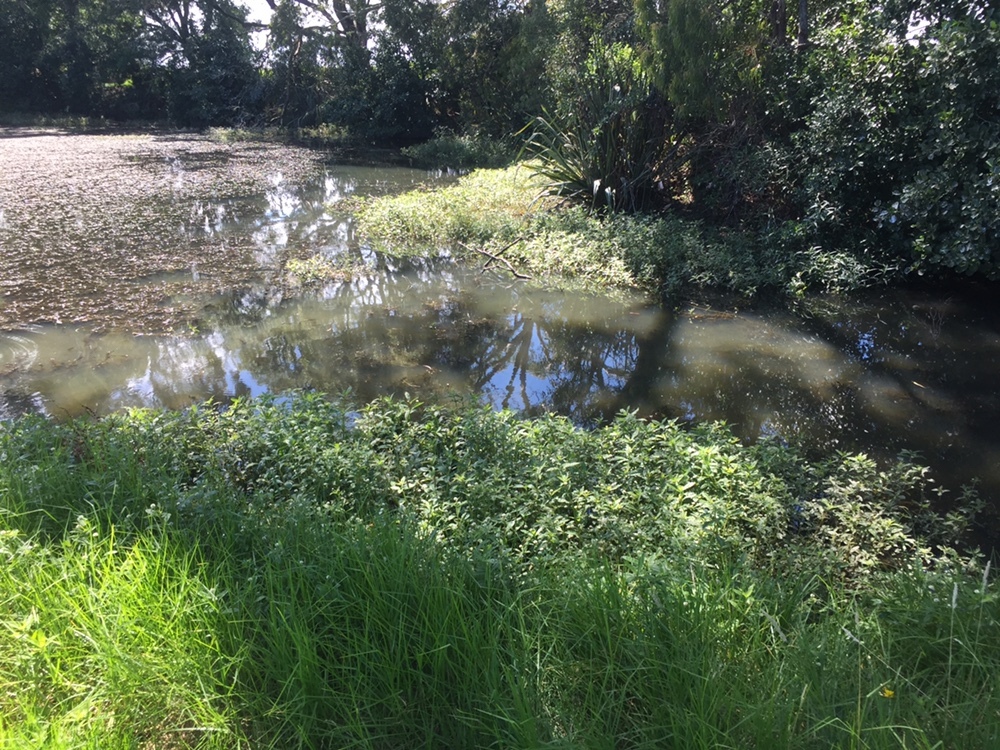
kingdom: Plantae
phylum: Tracheophyta
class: Magnoliopsida
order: Caryophyllales
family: Amaranthaceae
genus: Alternanthera
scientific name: Alternanthera philoxeroides
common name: Alligatorweed
